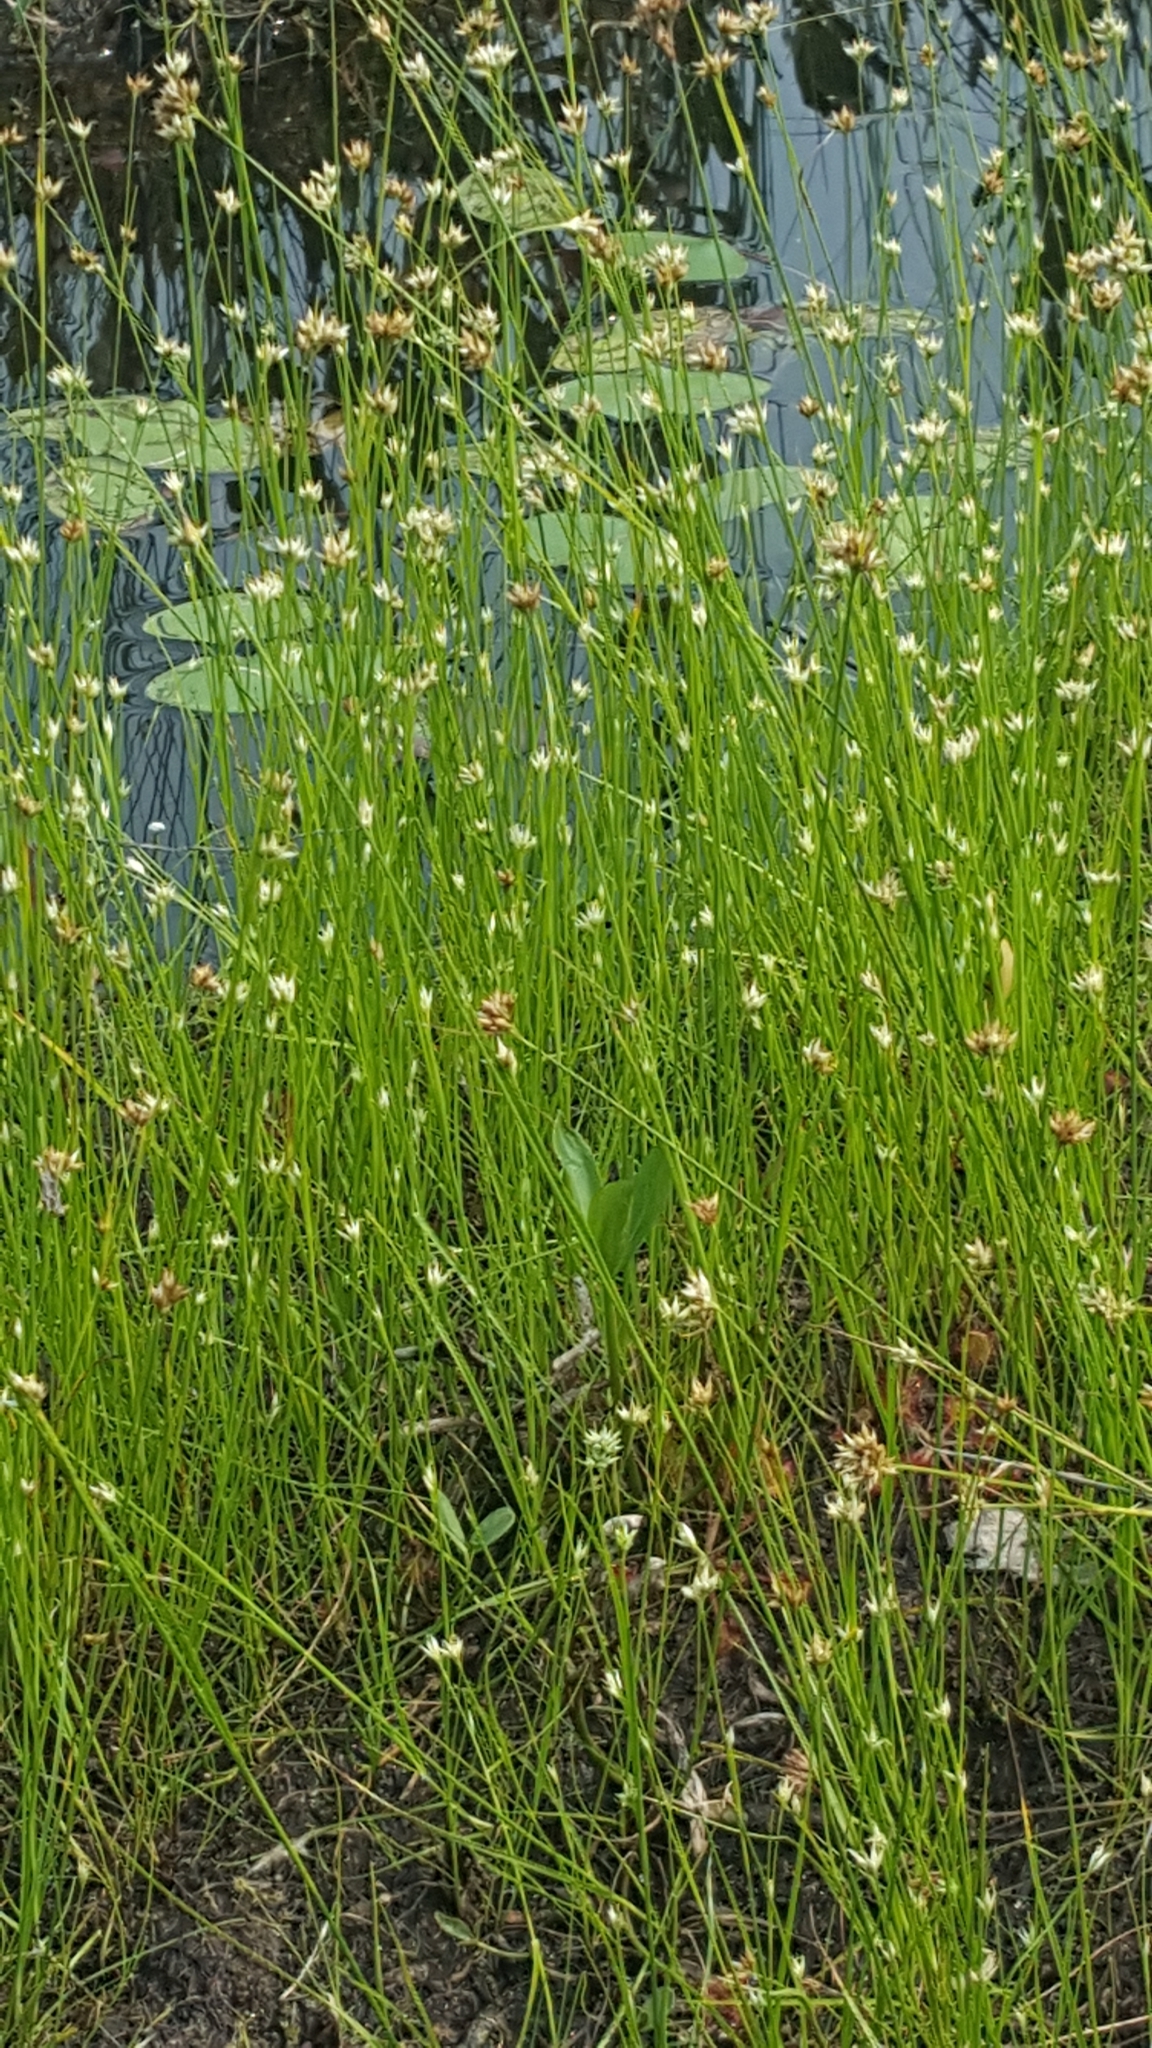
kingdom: Plantae
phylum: Tracheophyta
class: Liliopsida
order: Poales
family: Cyperaceae
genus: Rhynchospora
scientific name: Rhynchospora alba
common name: White beak-sedge
